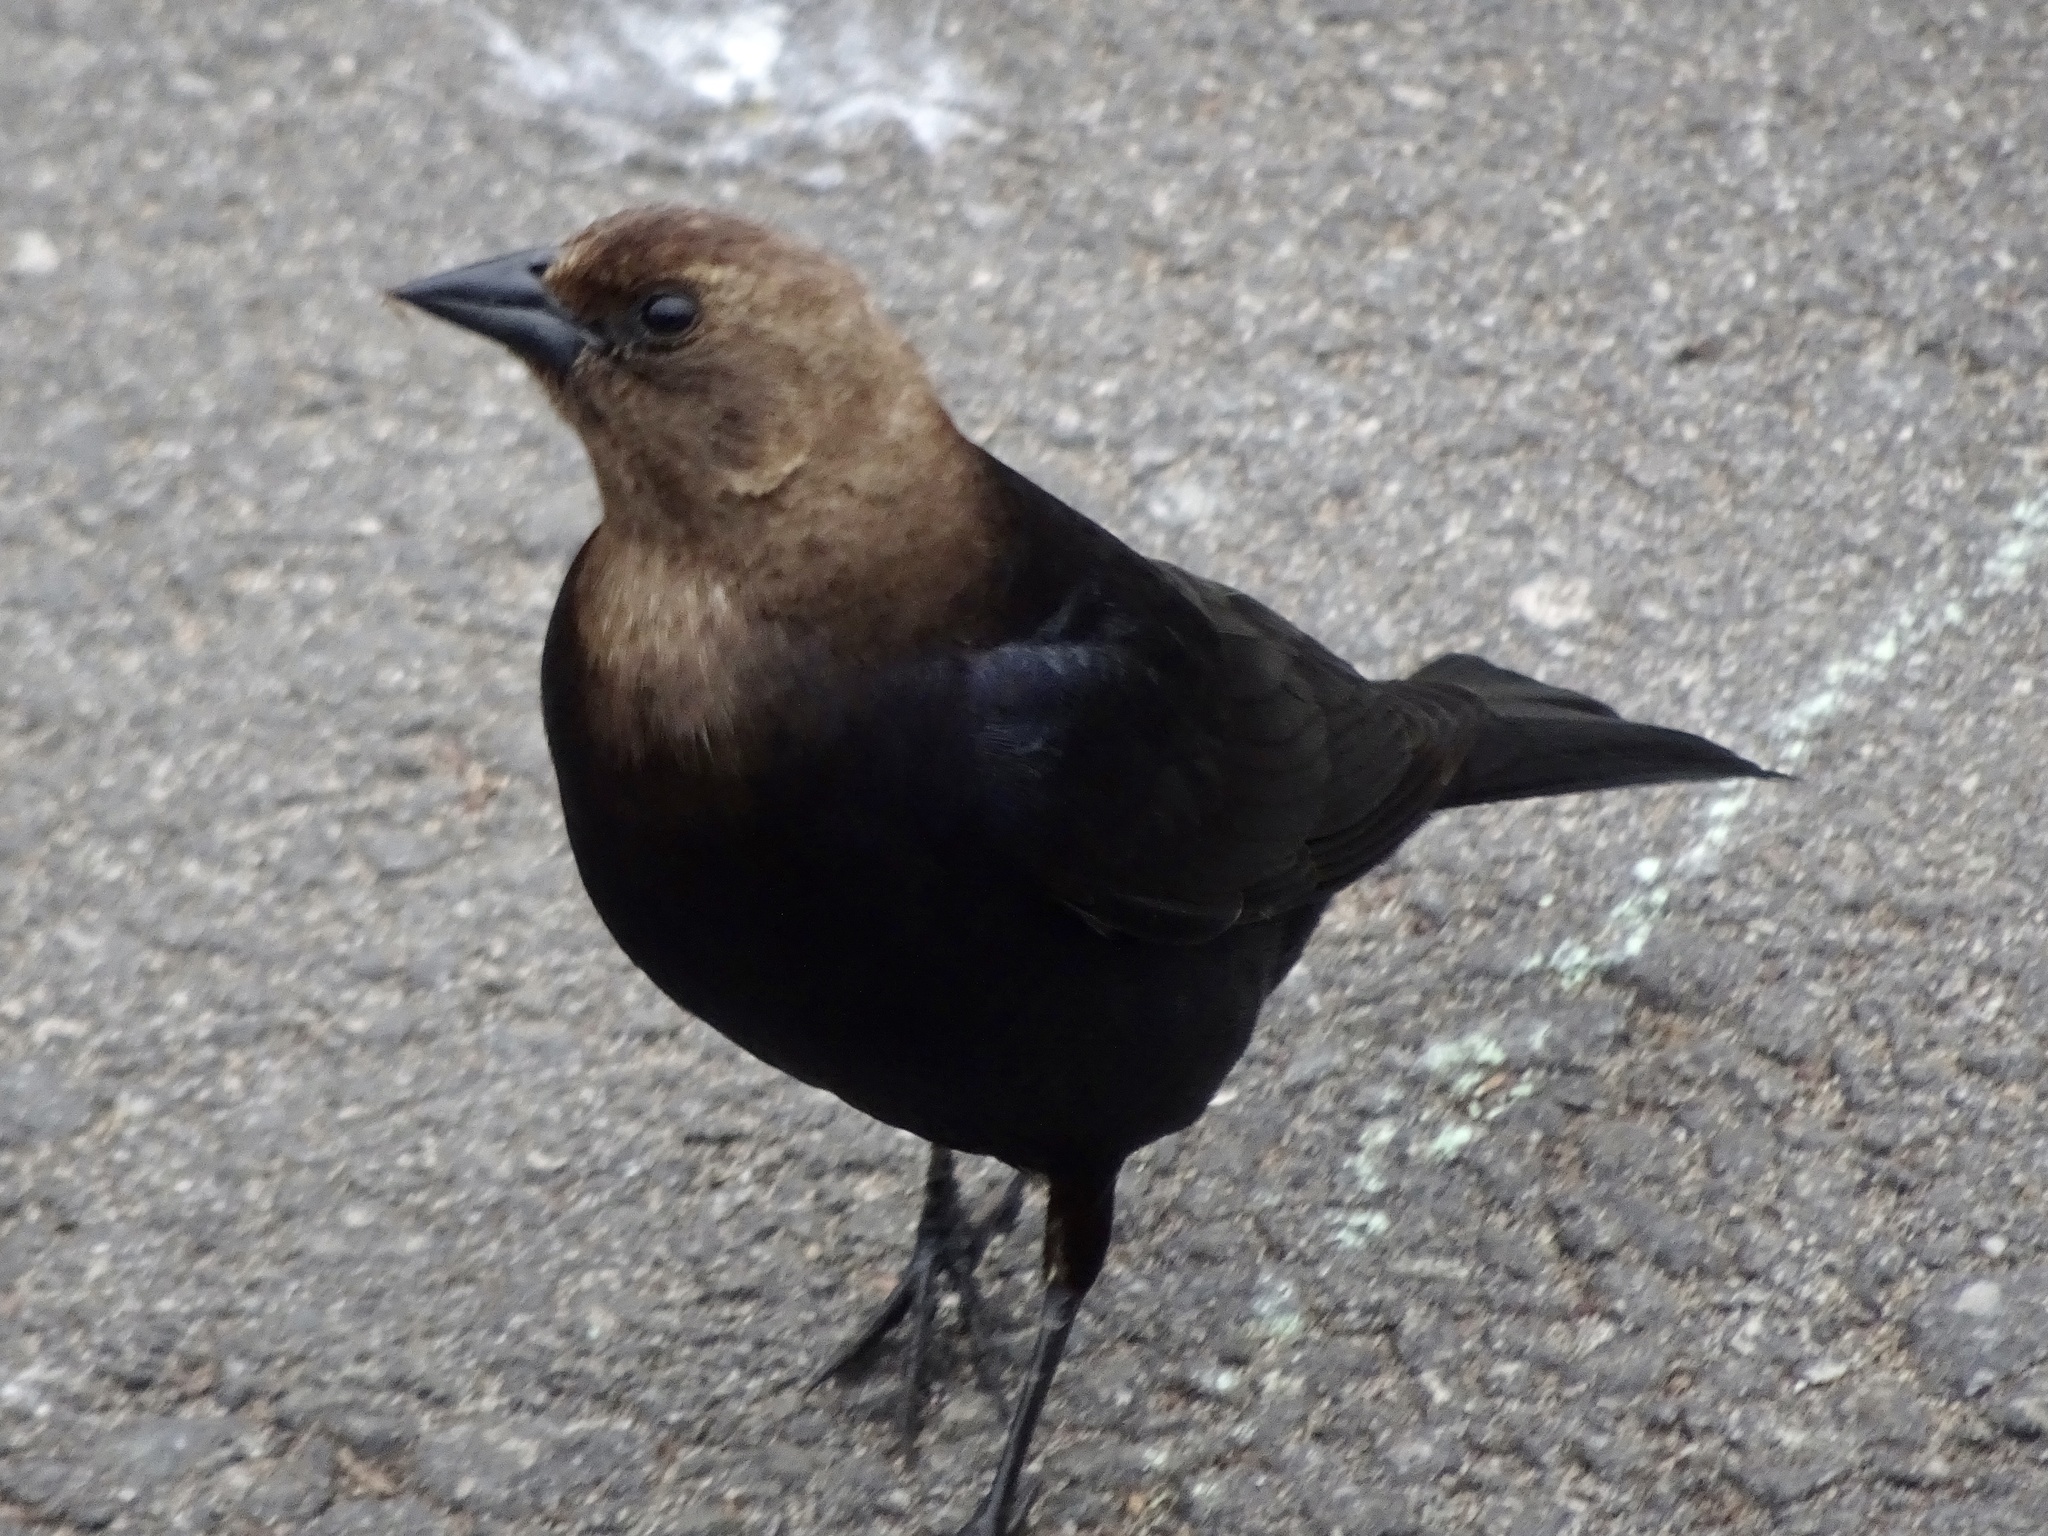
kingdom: Animalia
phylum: Chordata
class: Aves
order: Passeriformes
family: Icteridae
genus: Molothrus
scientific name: Molothrus ater
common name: Brown-headed cowbird
